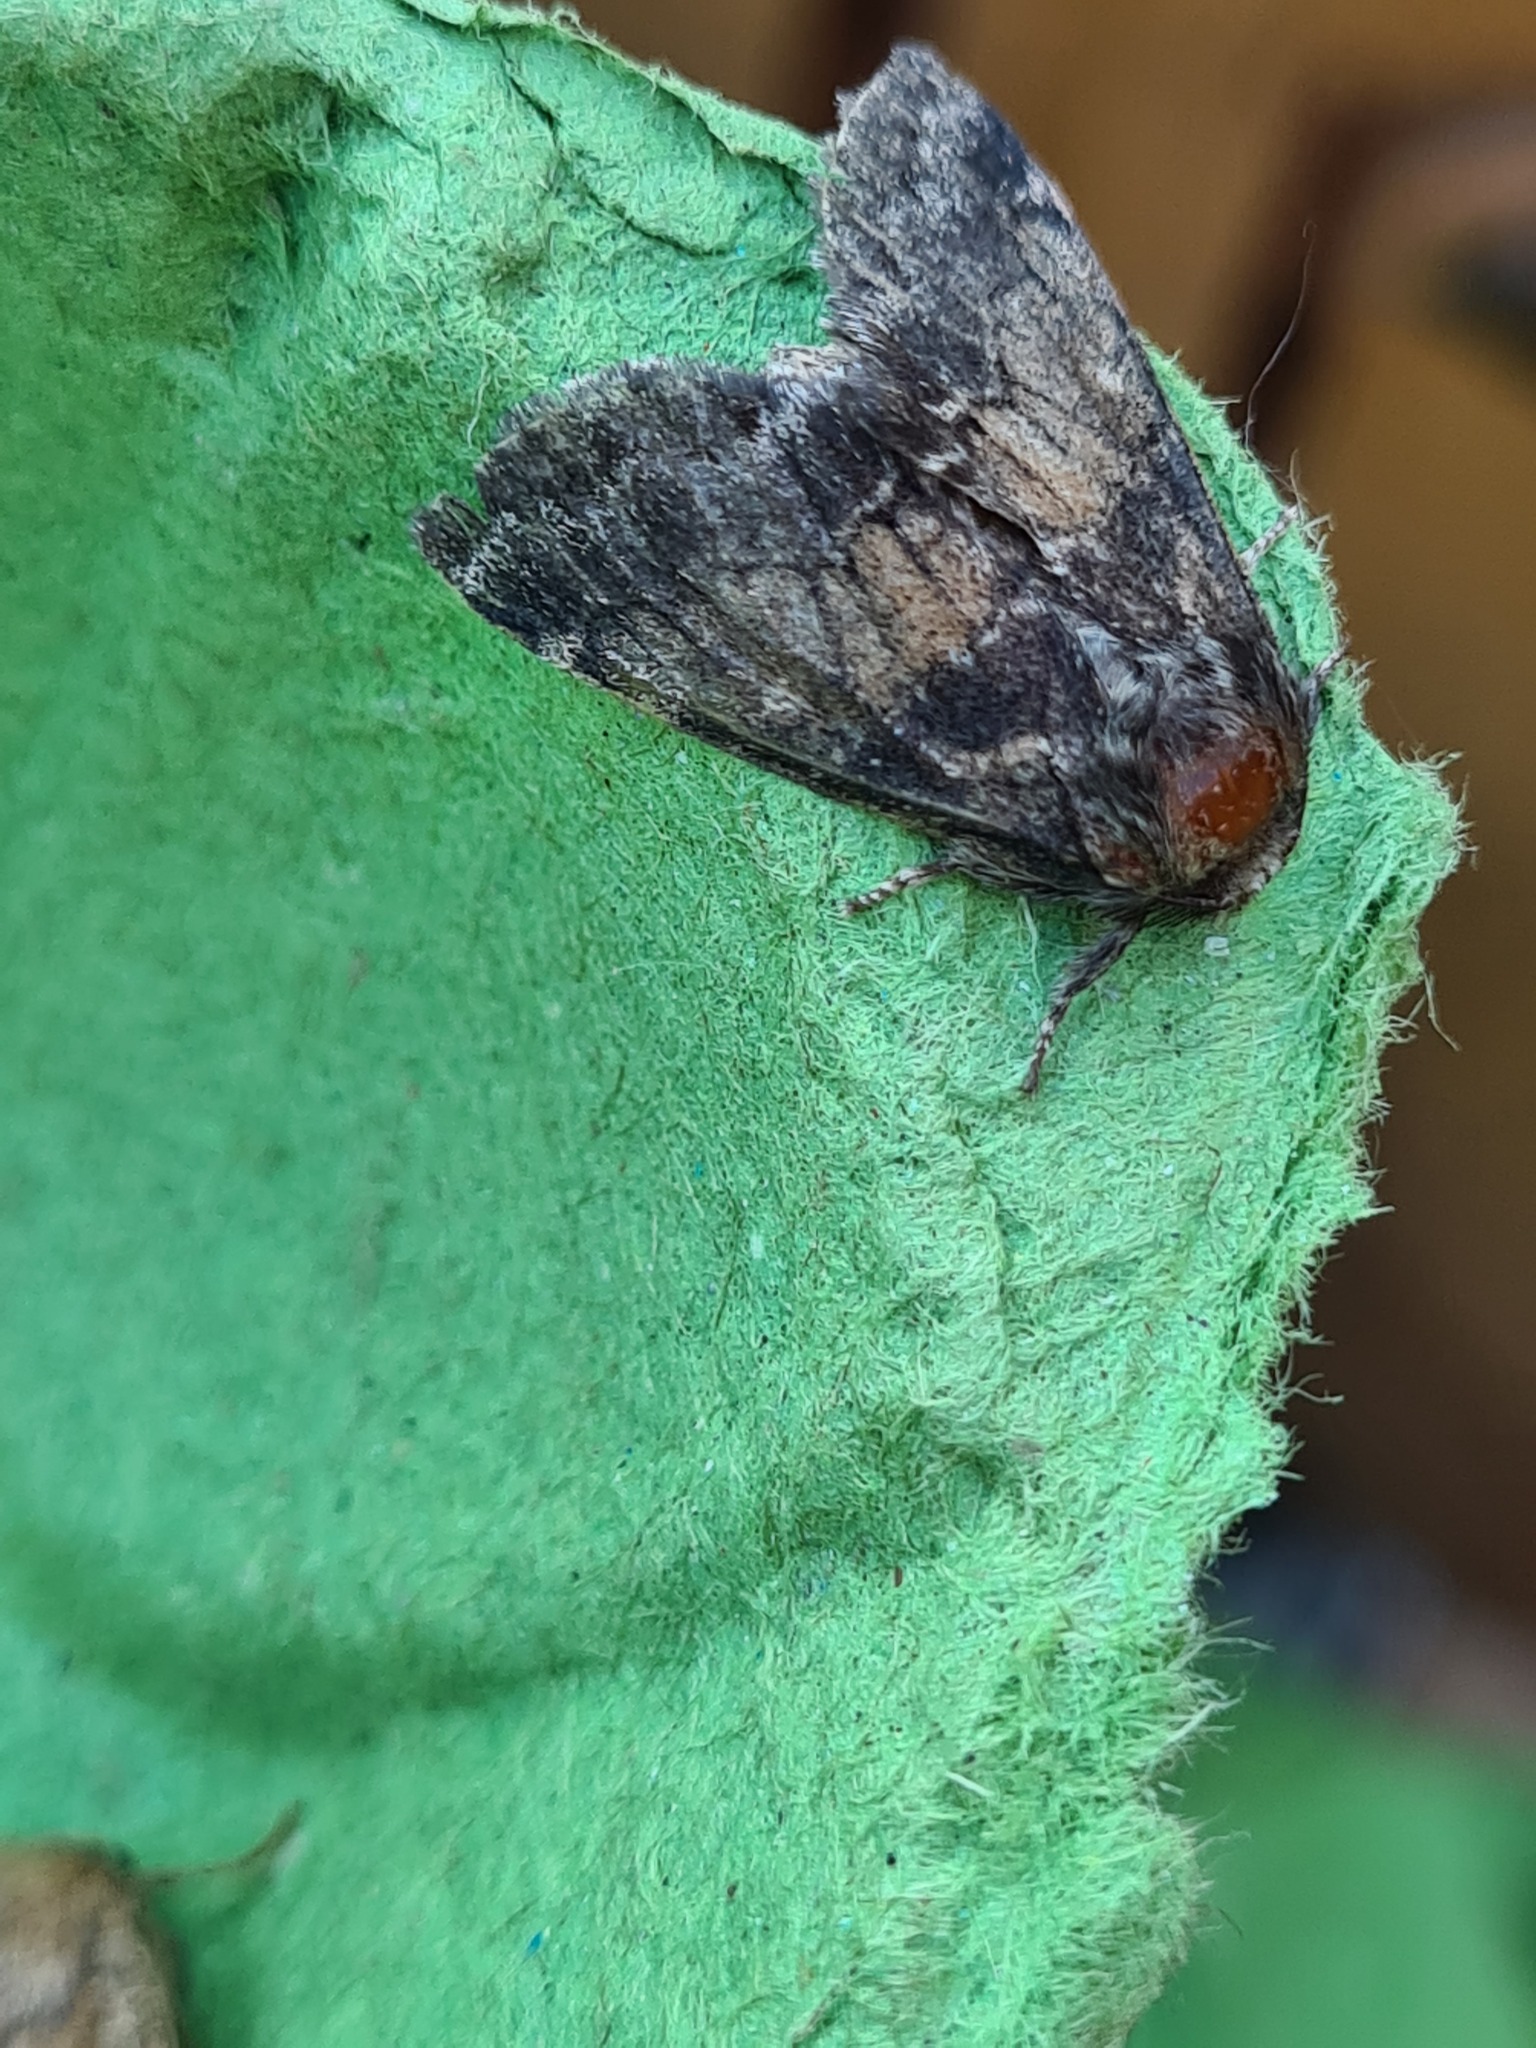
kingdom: Animalia
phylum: Arthropoda
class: Insecta
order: Lepidoptera
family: Notodontidae
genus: Gluphisia
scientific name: Gluphisia crenata
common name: Dusky marbled brown
